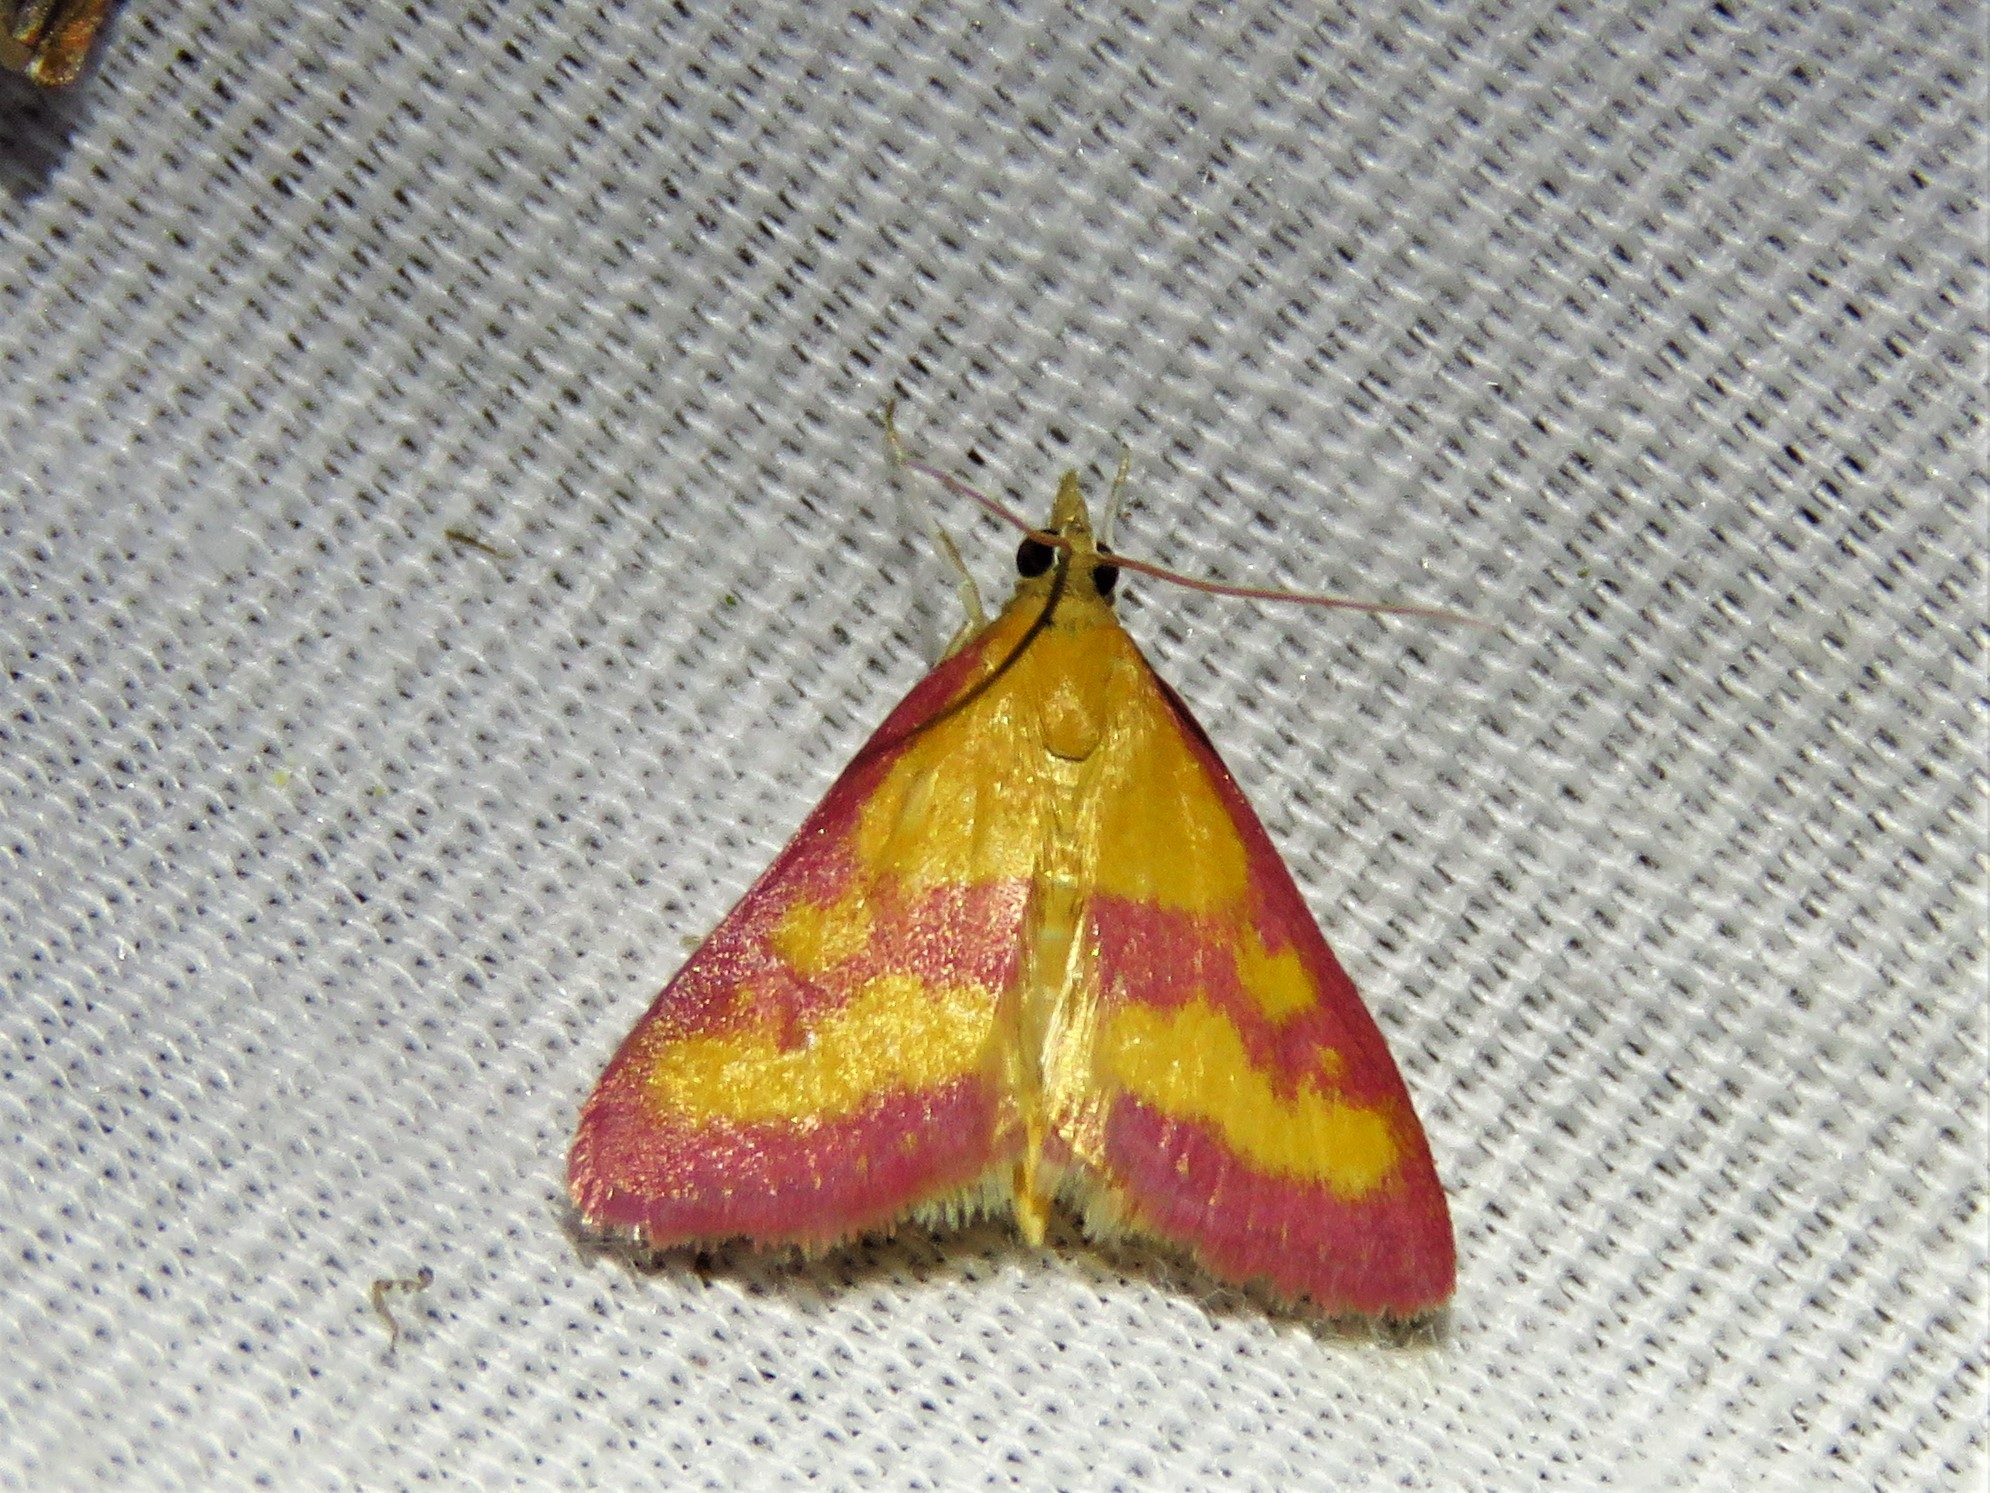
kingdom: Animalia
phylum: Arthropoda
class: Insecta
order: Lepidoptera
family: Crambidae
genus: Pyrausta
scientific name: Pyrausta laticlavia
